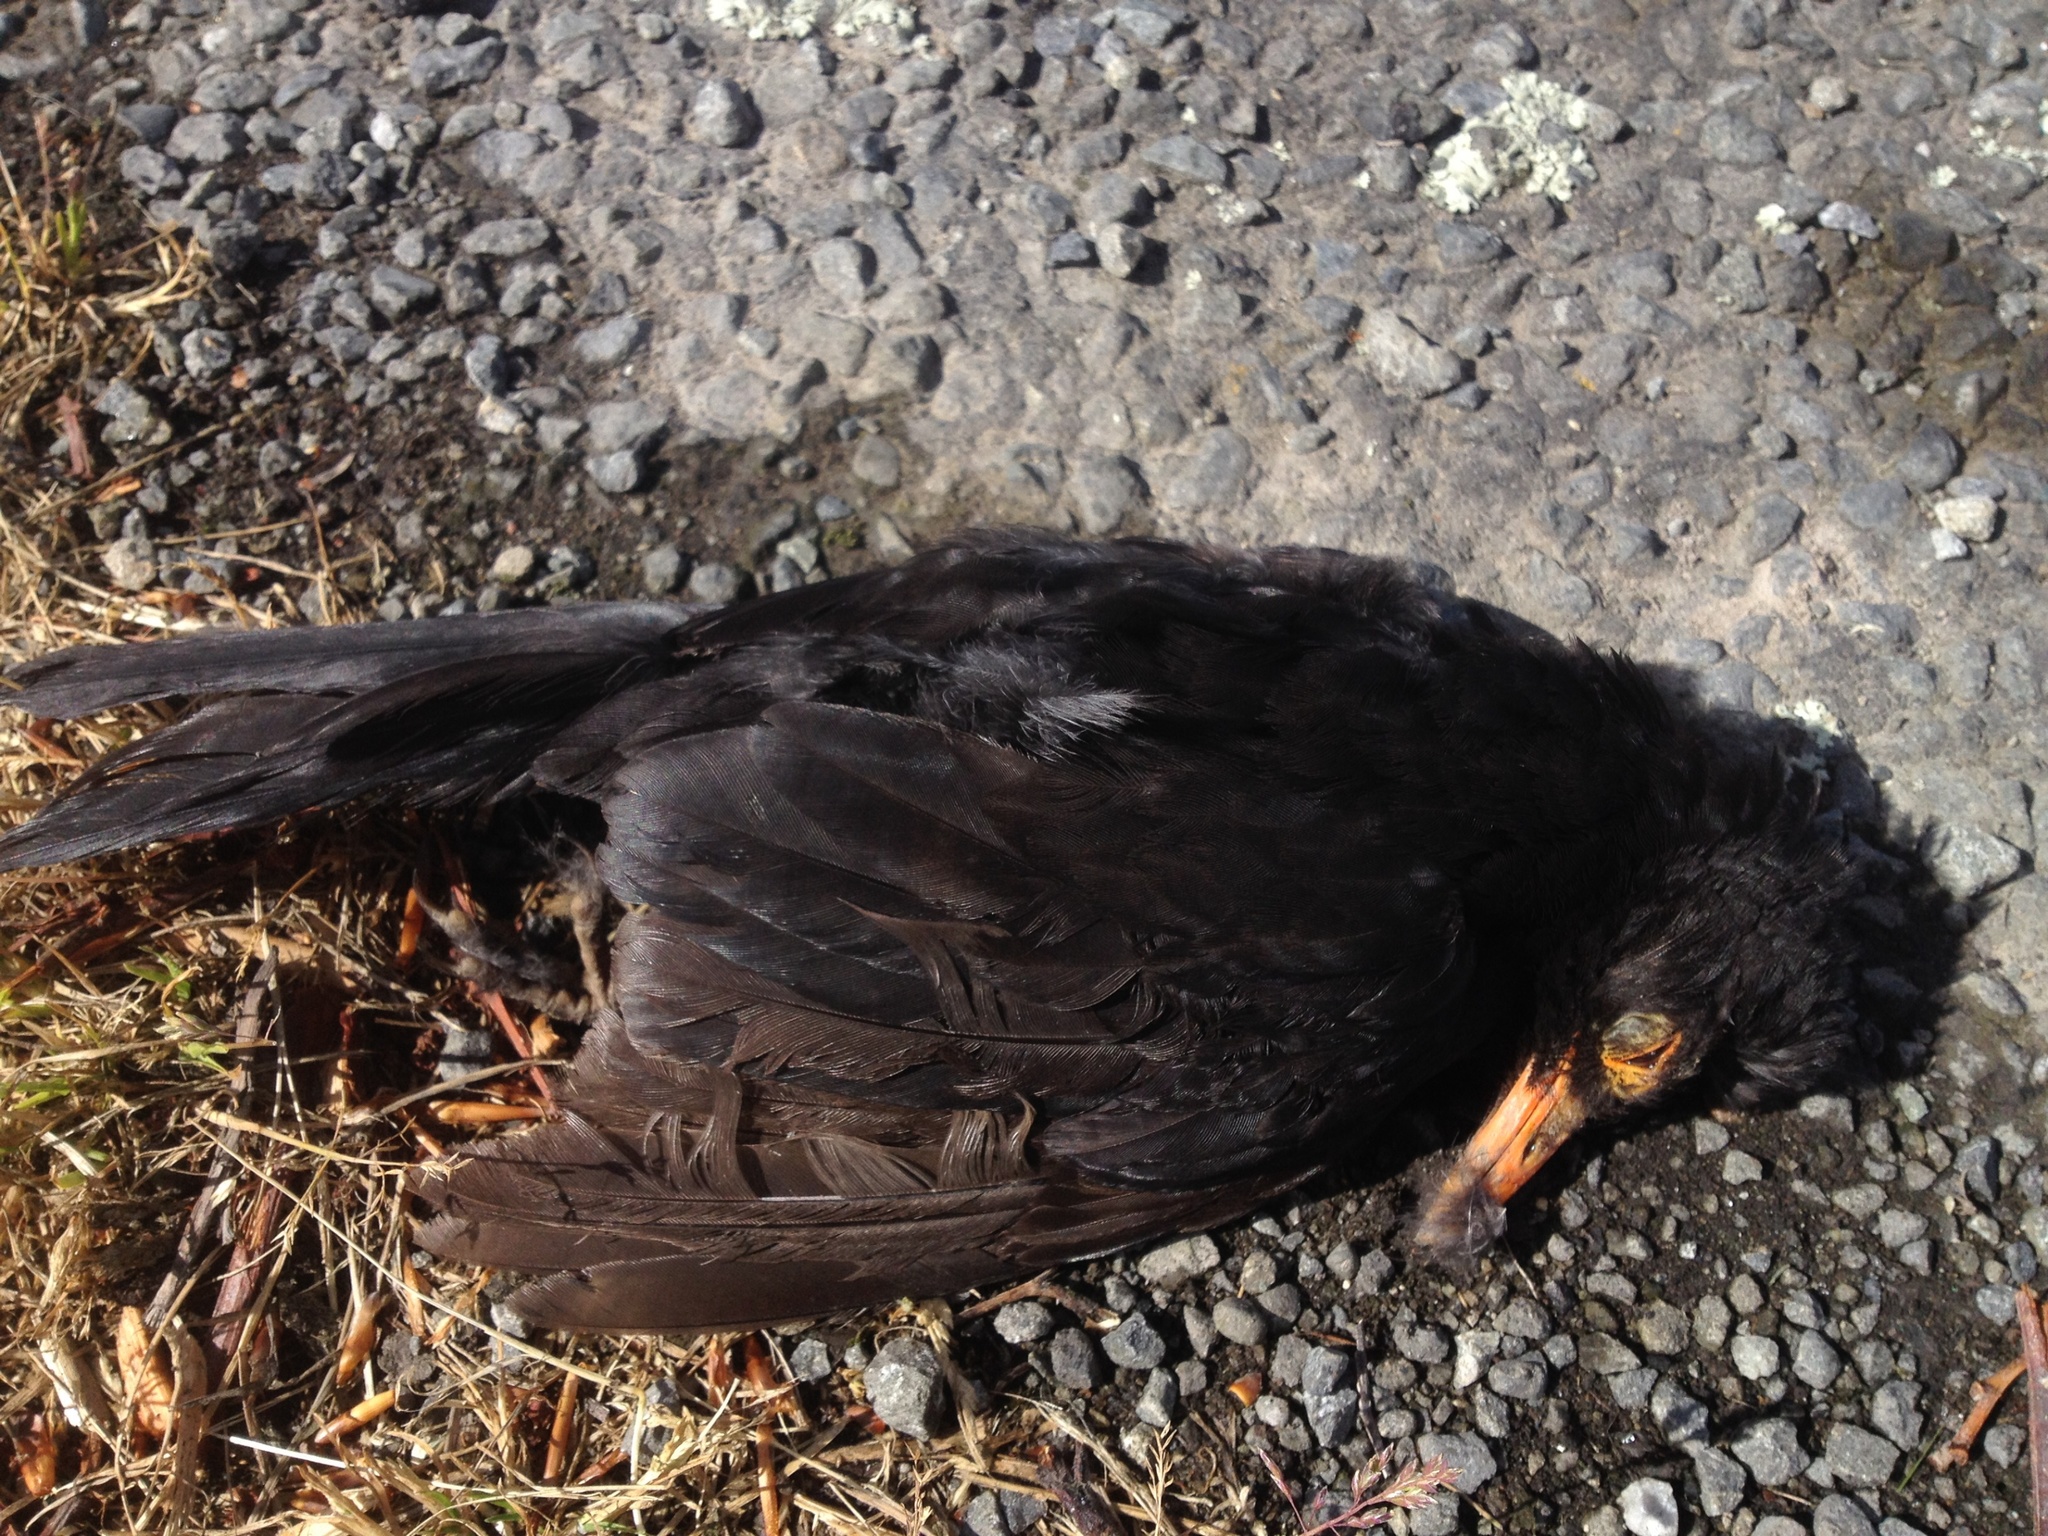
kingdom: Animalia
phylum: Chordata
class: Aves
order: Passeriformes
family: Turdidae
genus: Turdus
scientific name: Turdus merula
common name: Common blackbird
